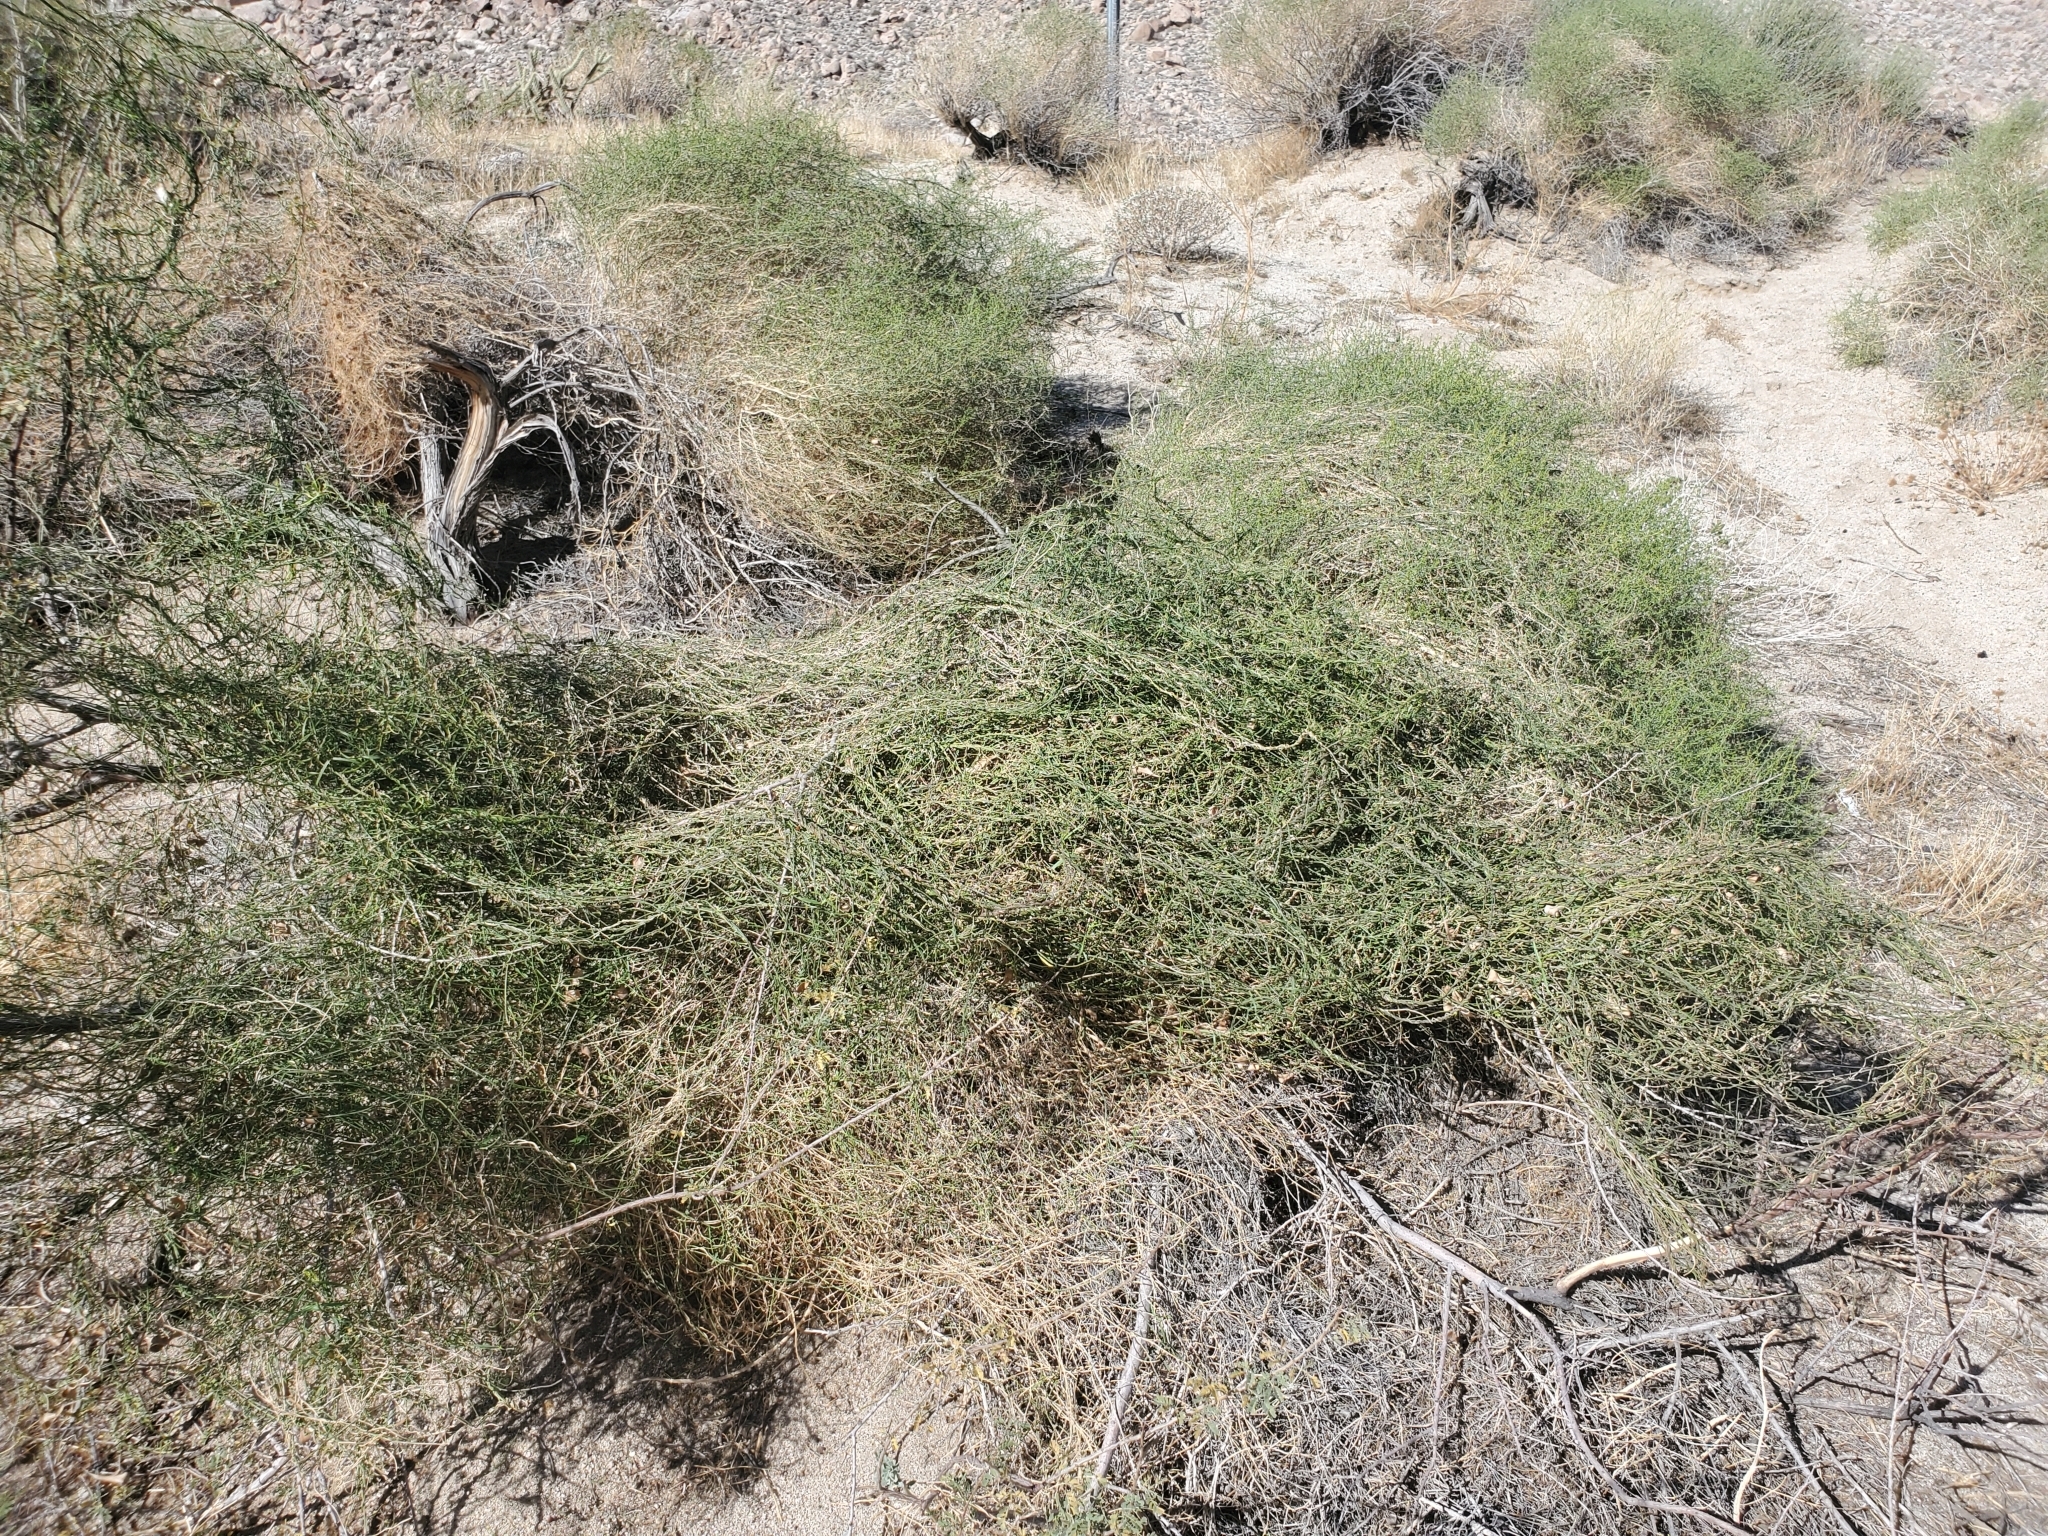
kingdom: Plantae
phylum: Tracheophyta
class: Magnoliopsida
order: Gentianales
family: Apocynaceae
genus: Funastrum
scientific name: Funastrum heterophyllum
